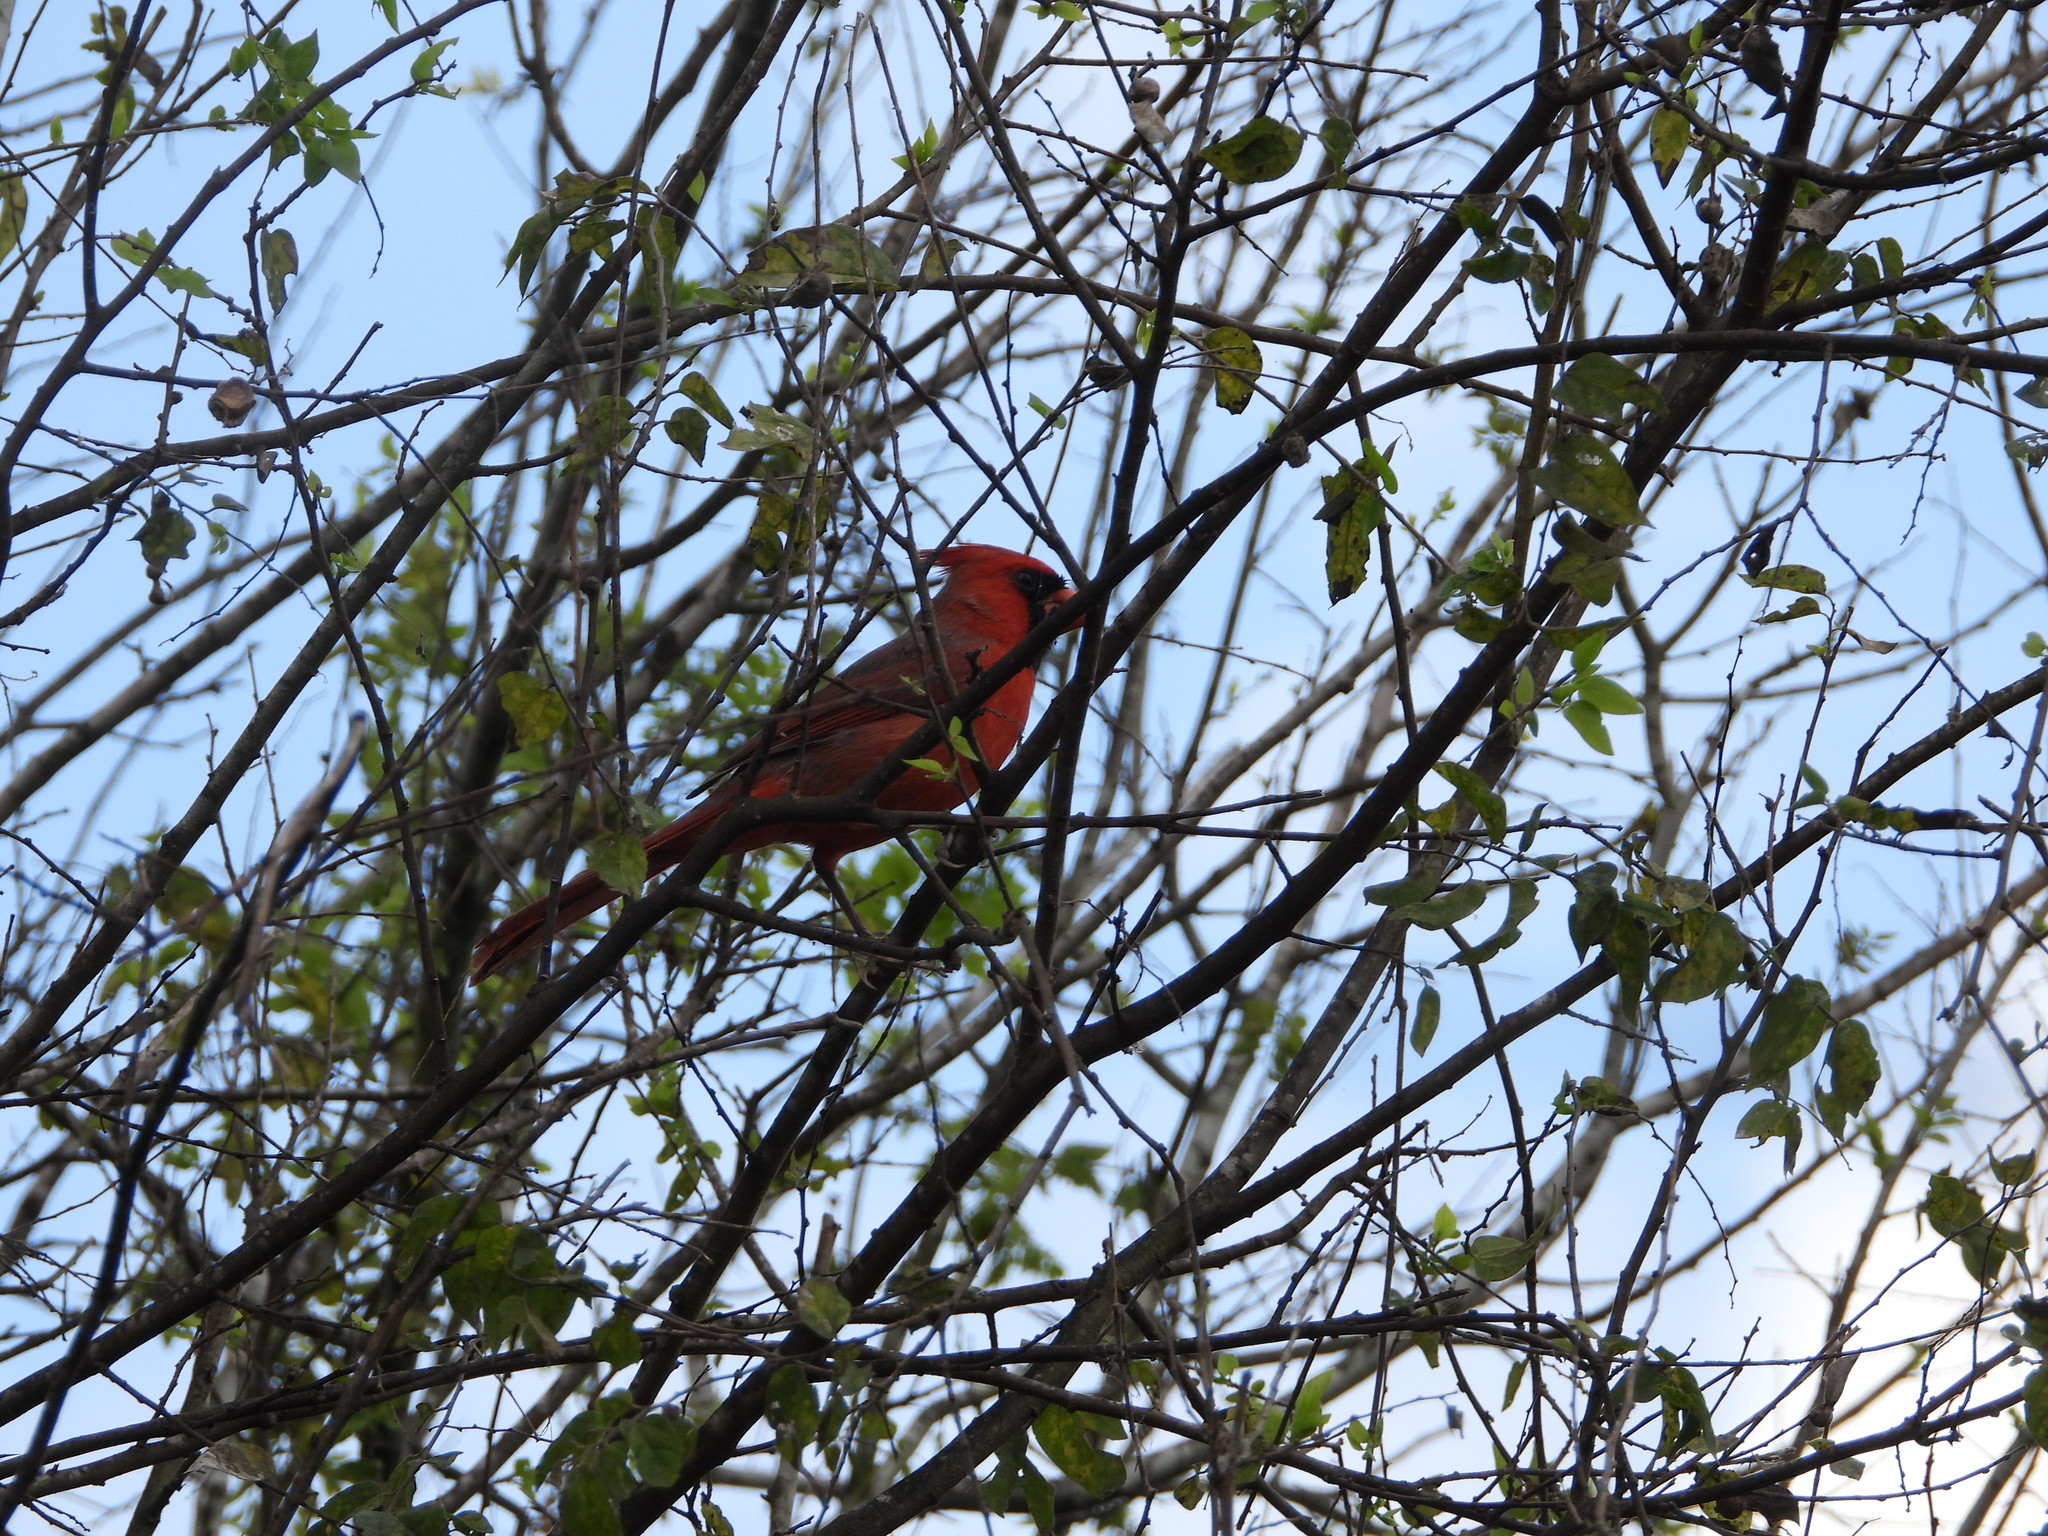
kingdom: Animalia
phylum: Chordata
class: Aves
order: Passeriformes
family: Cardinalidae
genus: Cardinalis
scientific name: Cardinalis cardinalis
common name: Northern cardinal
